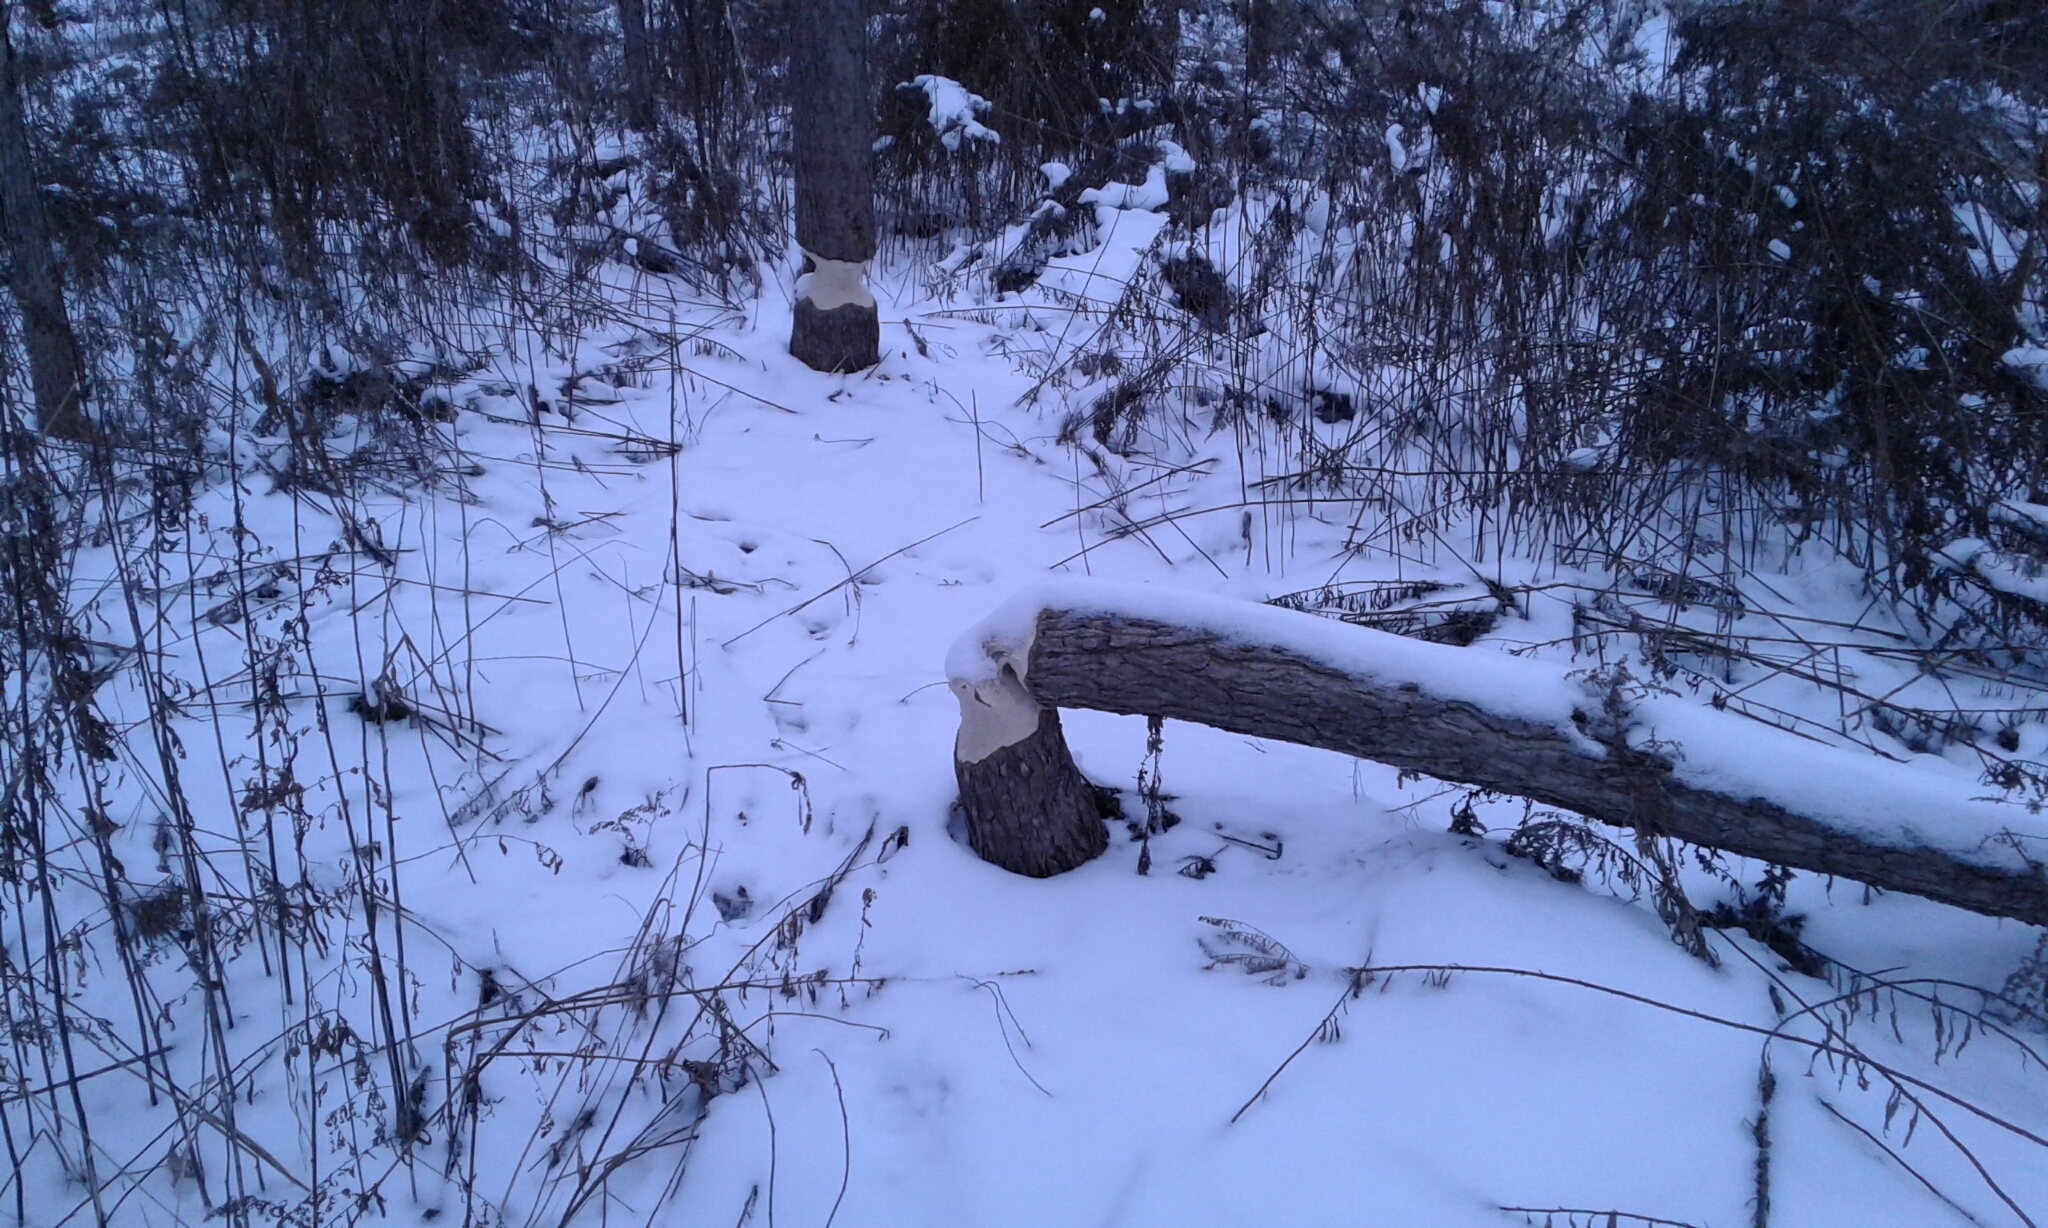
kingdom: Animalia
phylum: Chordata
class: Mammalia
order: Rodentia
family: Castoridae
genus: Castor
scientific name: Castor canadensis
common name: American beaver
